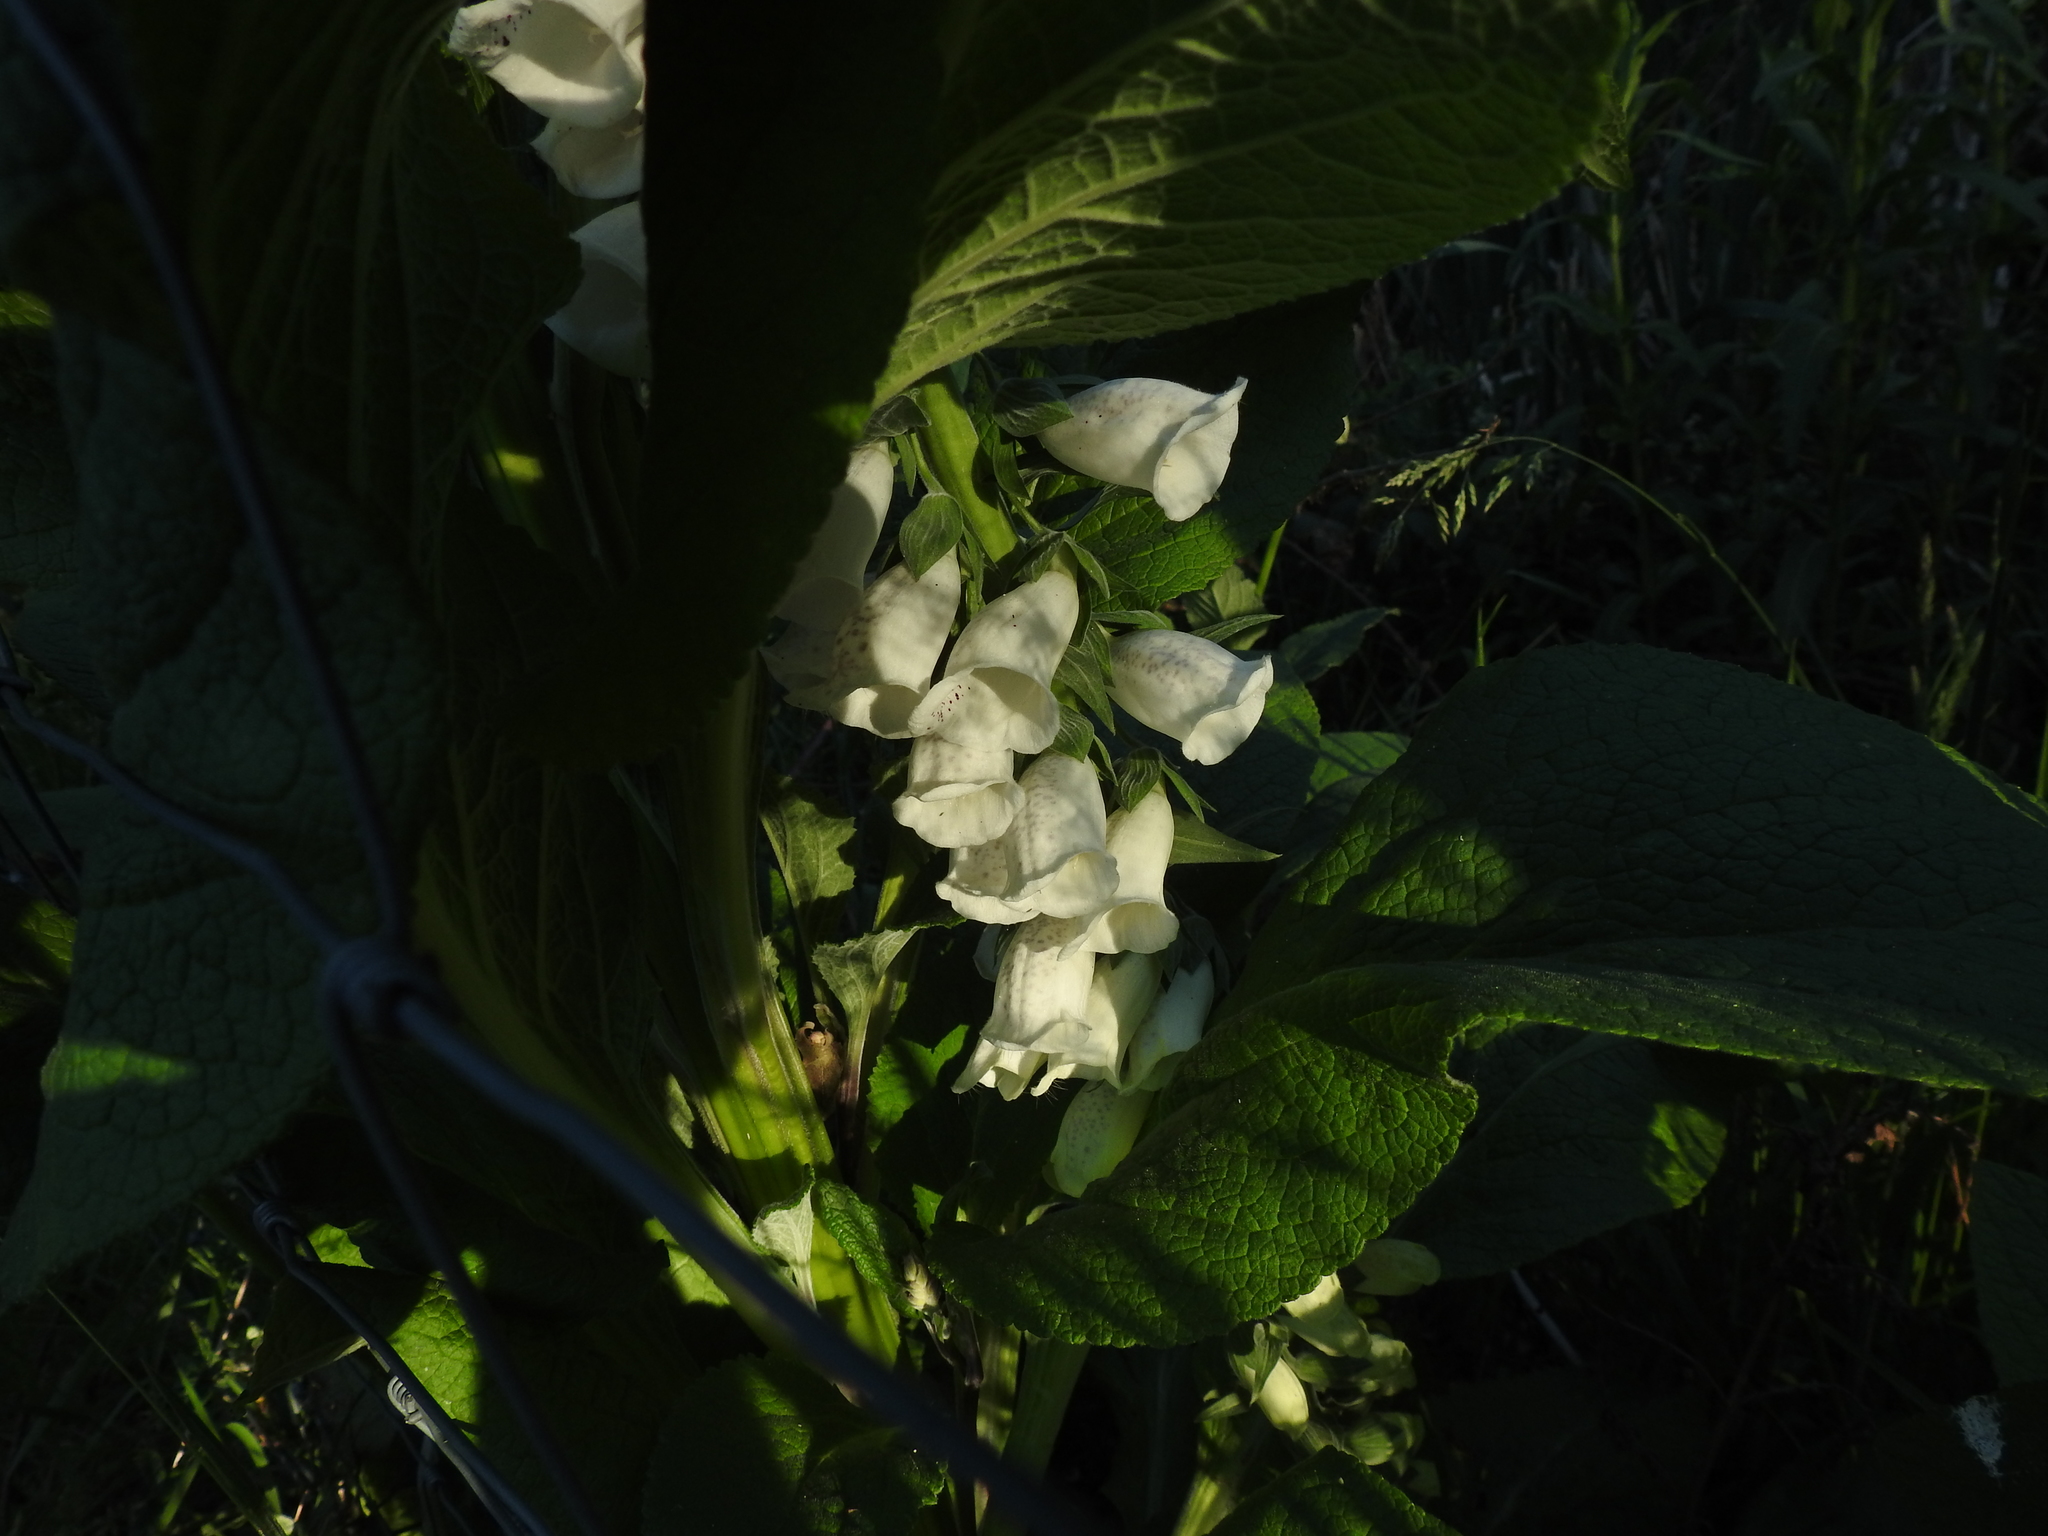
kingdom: Plantae
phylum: Tracheophyta
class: Magnoliopsida
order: Lamiales
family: Plantaginaceae
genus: Digitalis
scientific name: Digitalis purpurea
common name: Foxglove
